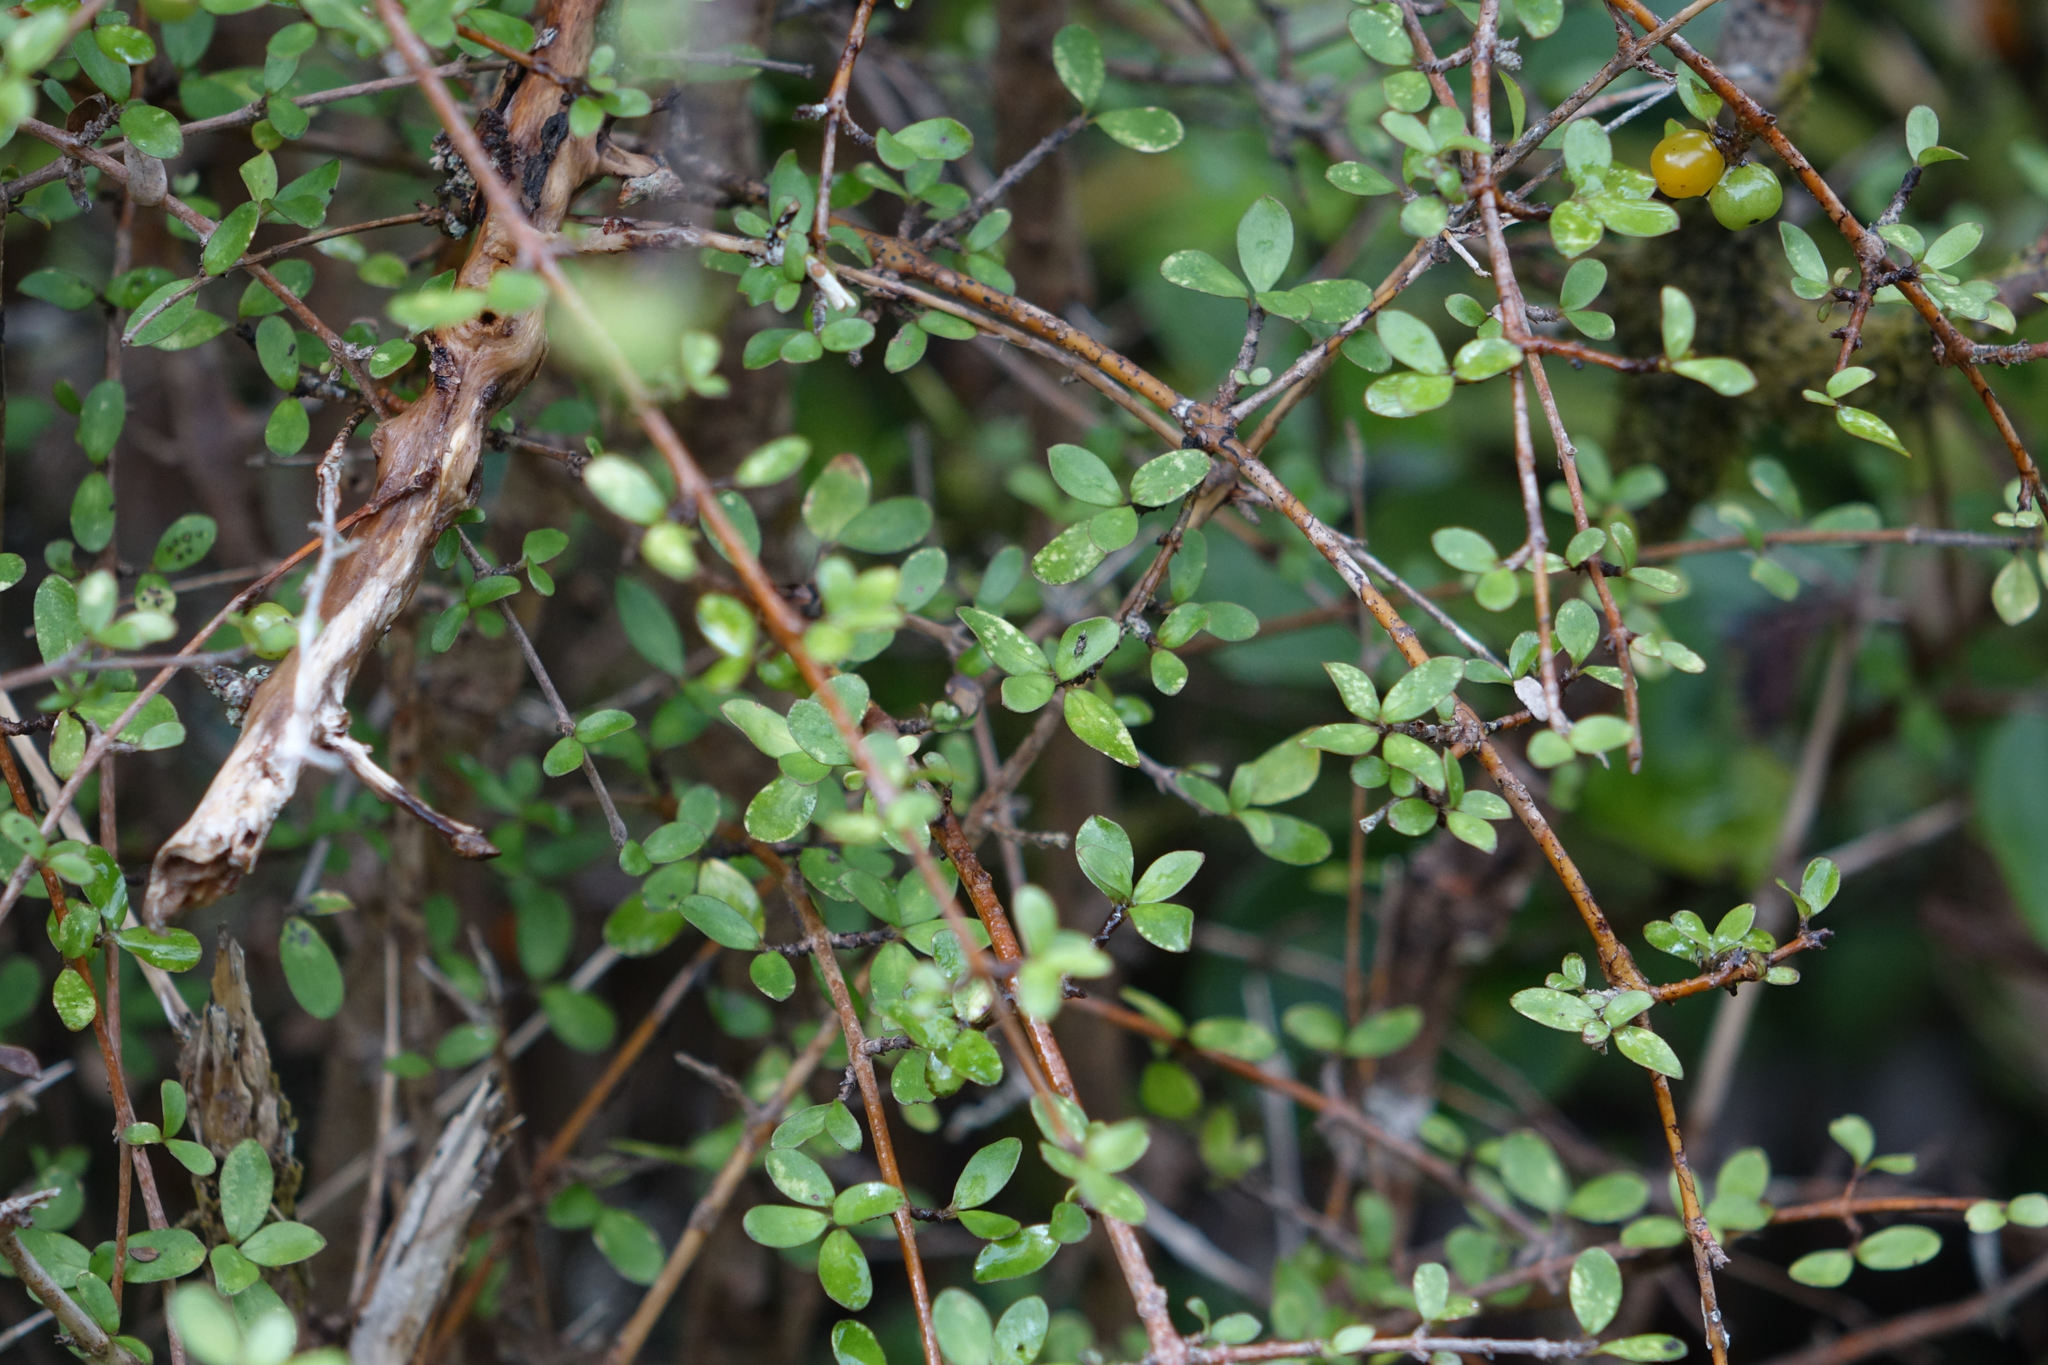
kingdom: Plantae
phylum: Tracheophyta
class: Magnoliopsida
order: Gentianales
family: Rubiaceae
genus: Coprosma
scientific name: Coprosma rigida
